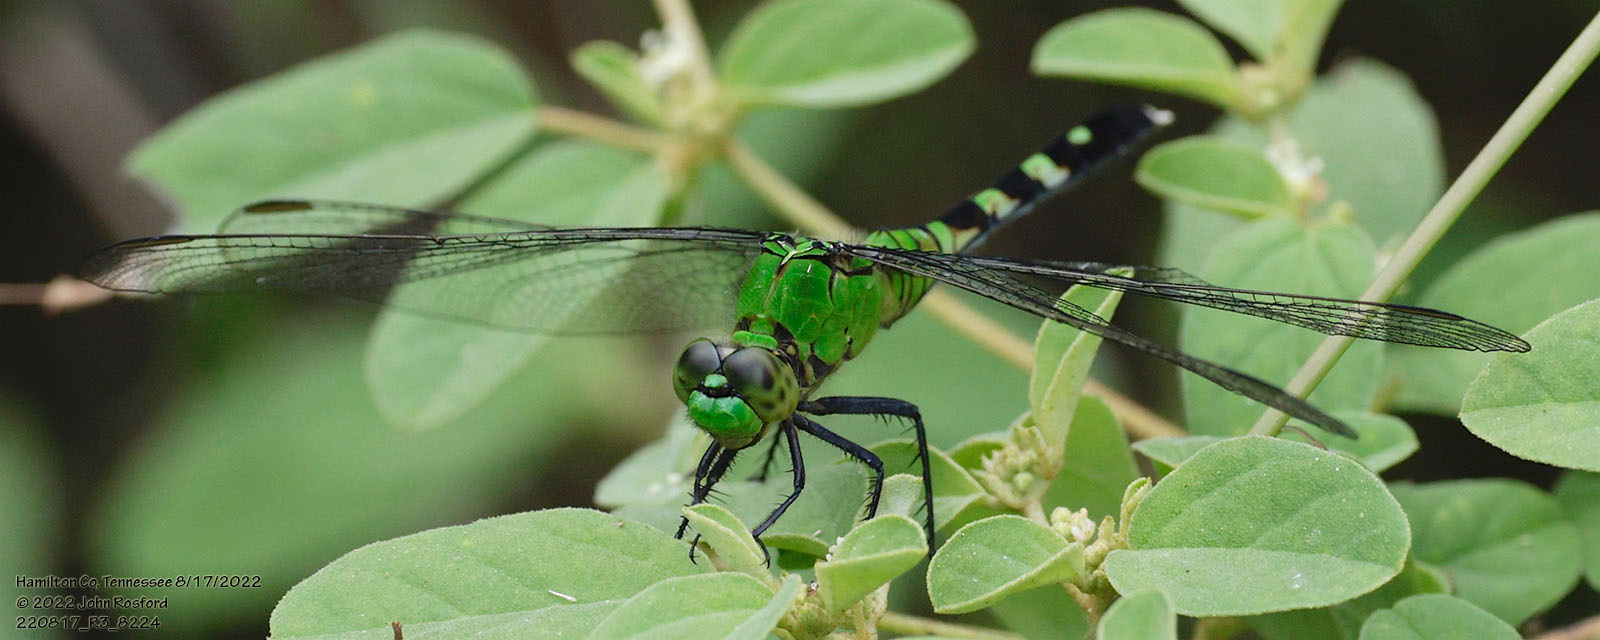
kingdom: Animalia
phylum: Arthropoda
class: Insecta
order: Odonata
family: Libellulidae
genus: Erythemis
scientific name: Erythemis simplicicollis
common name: Eastern pondhawk
